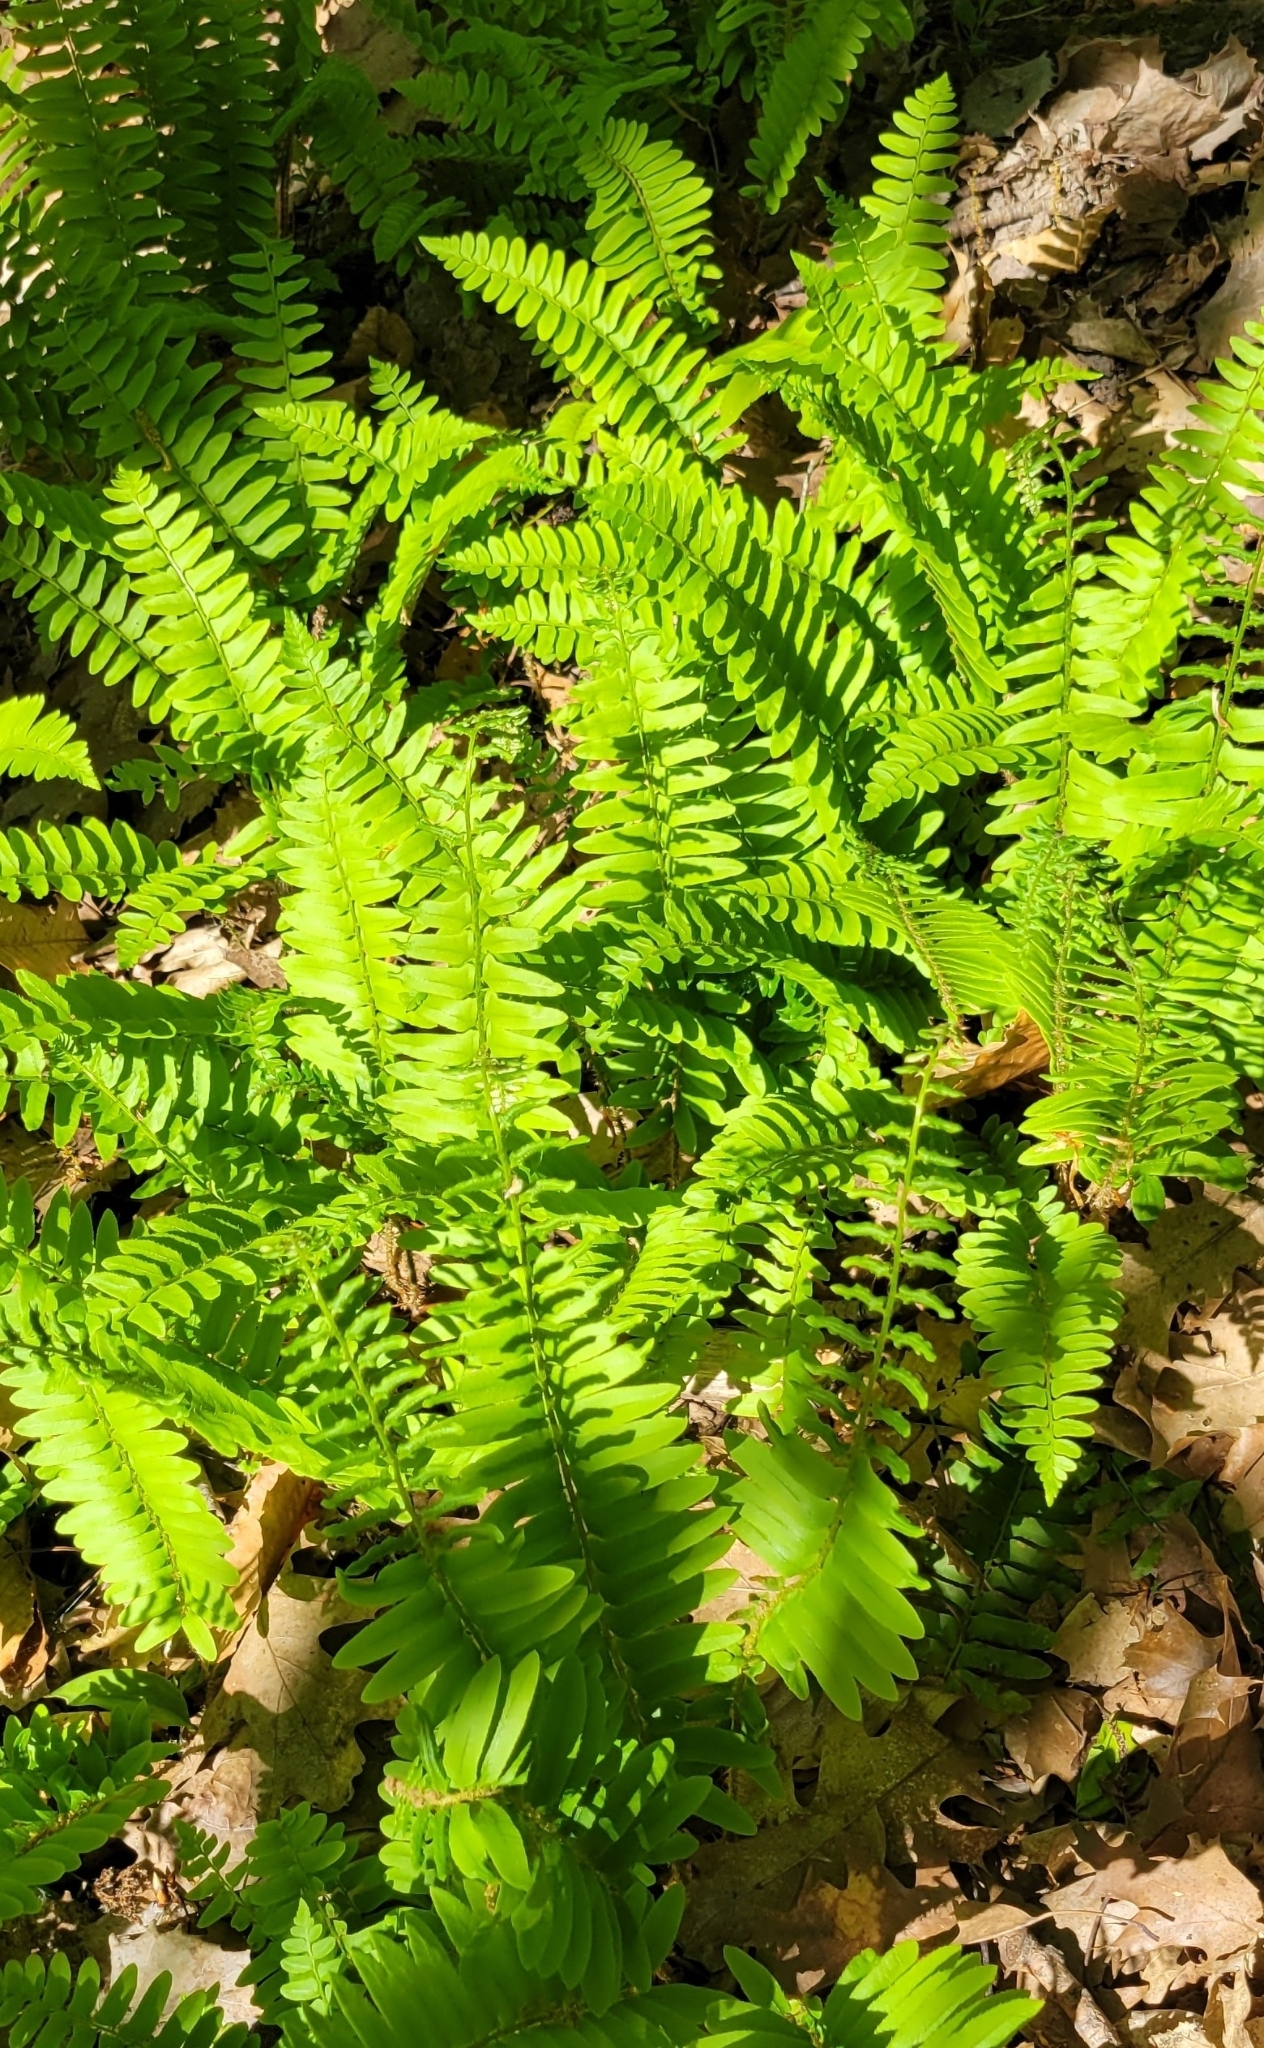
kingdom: Plantae
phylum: Tracheophyta
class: Polypodiopsida
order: Polypodiales
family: Dryopteridaceae
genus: Polystichum
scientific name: Polystichum acrostichoides
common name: Christmas fern
